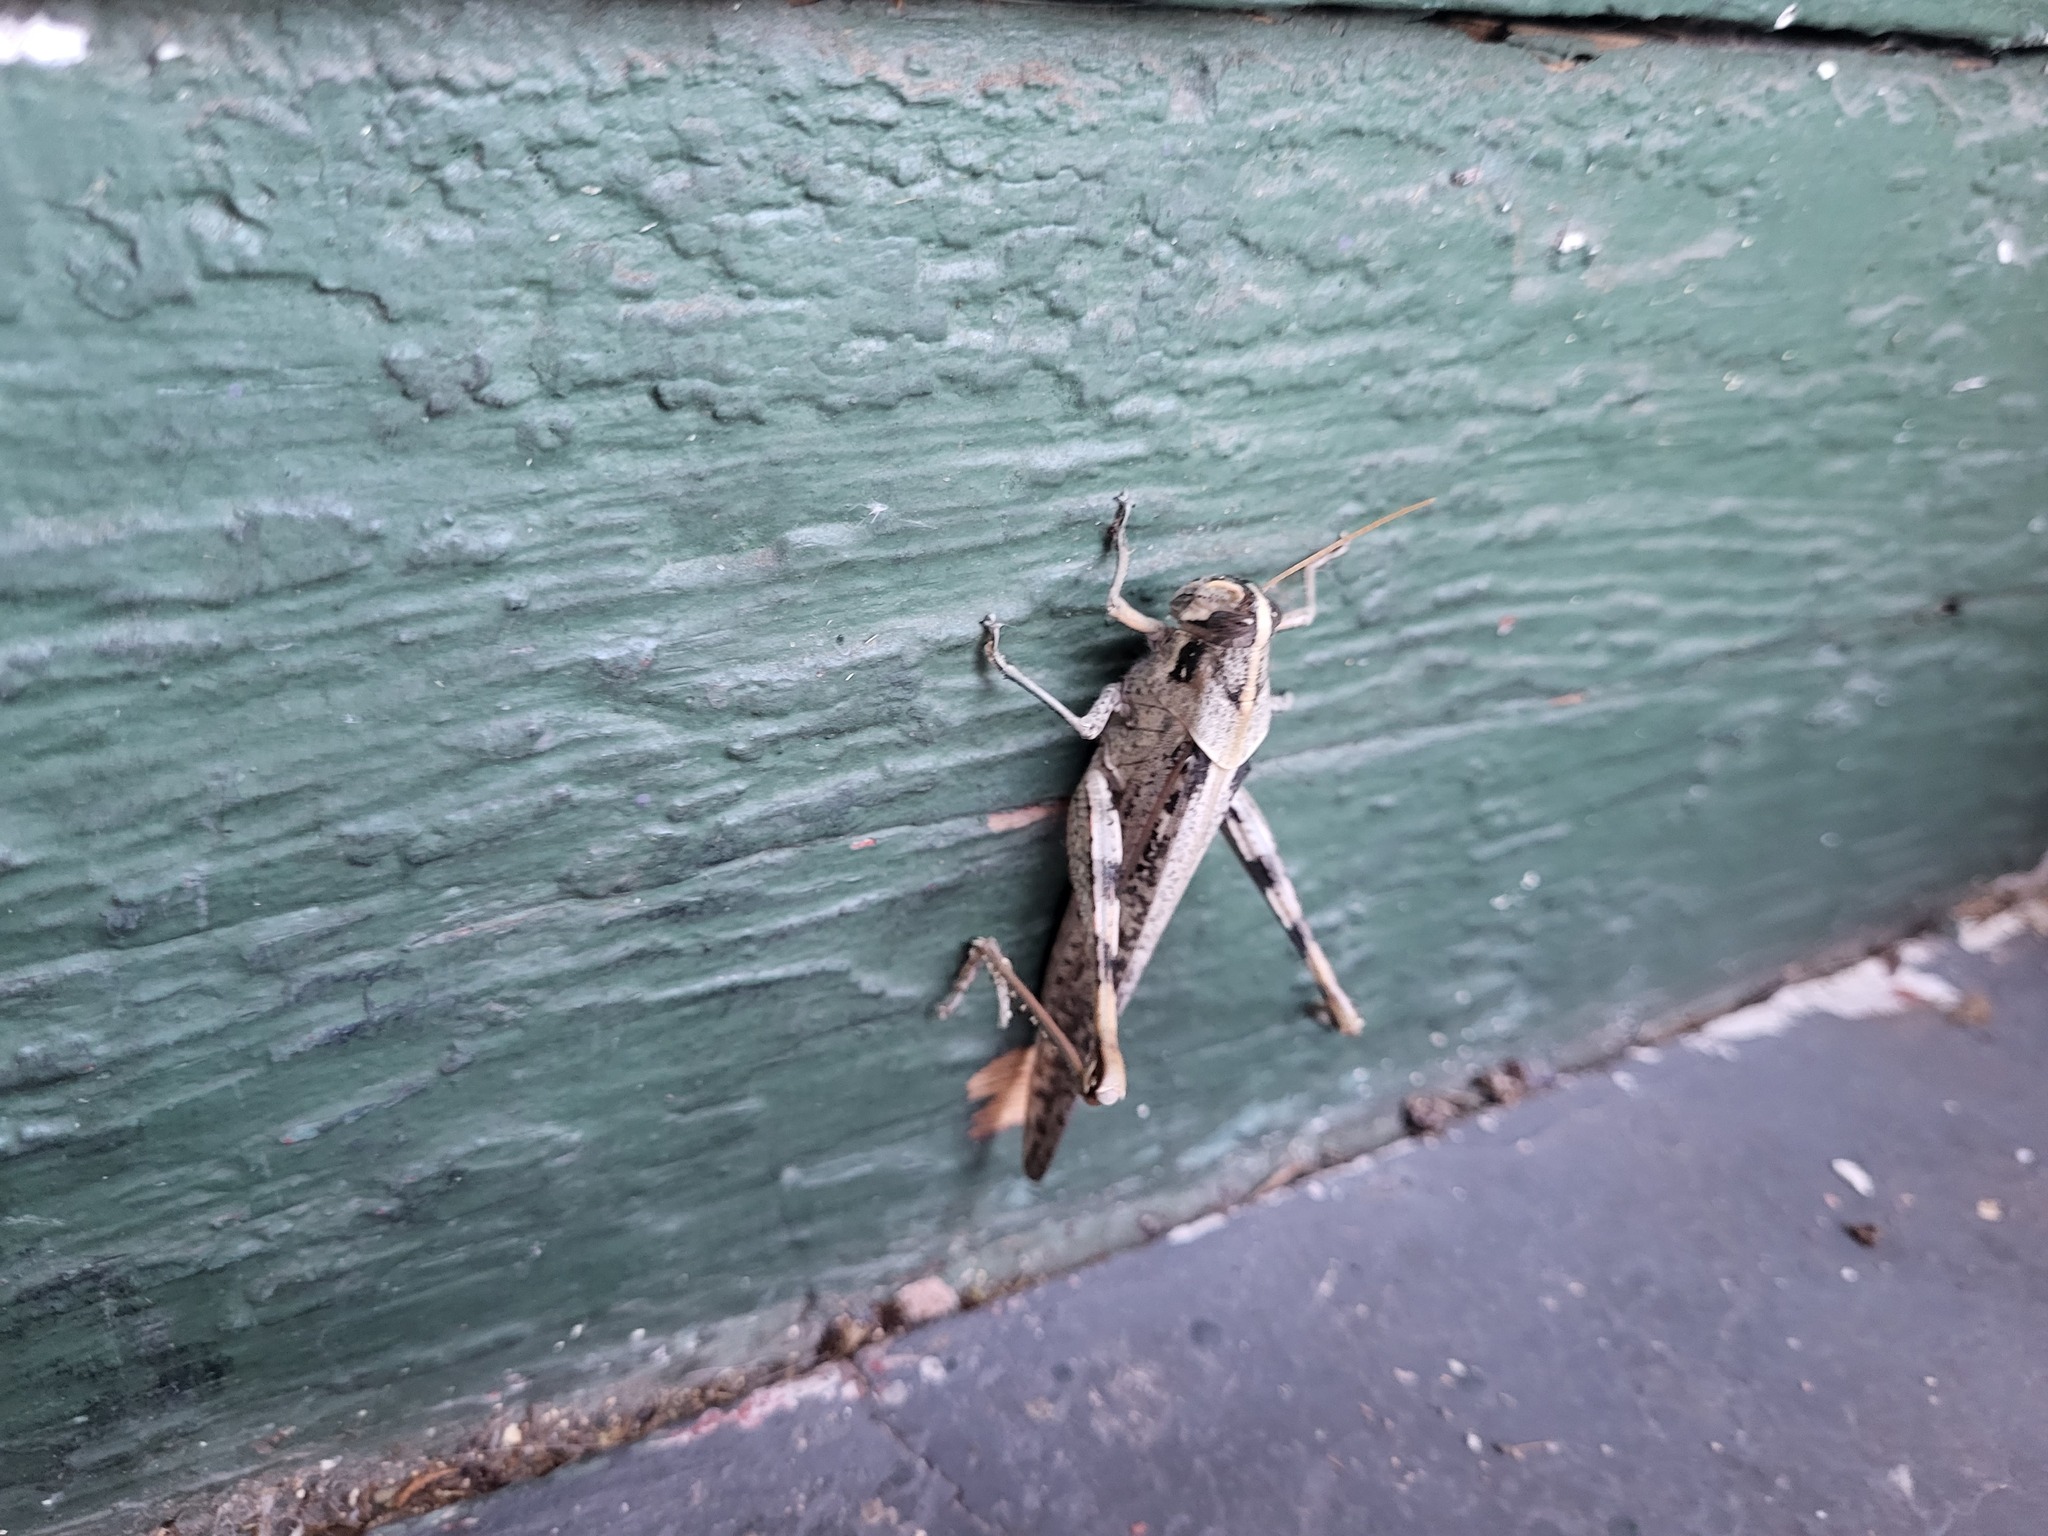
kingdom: Animalia
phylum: Arthropoda
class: Insecta
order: Orthoptera
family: Acrididae
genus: Schistocerca
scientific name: Schistocerca nitens
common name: Vagrant grasshopper
